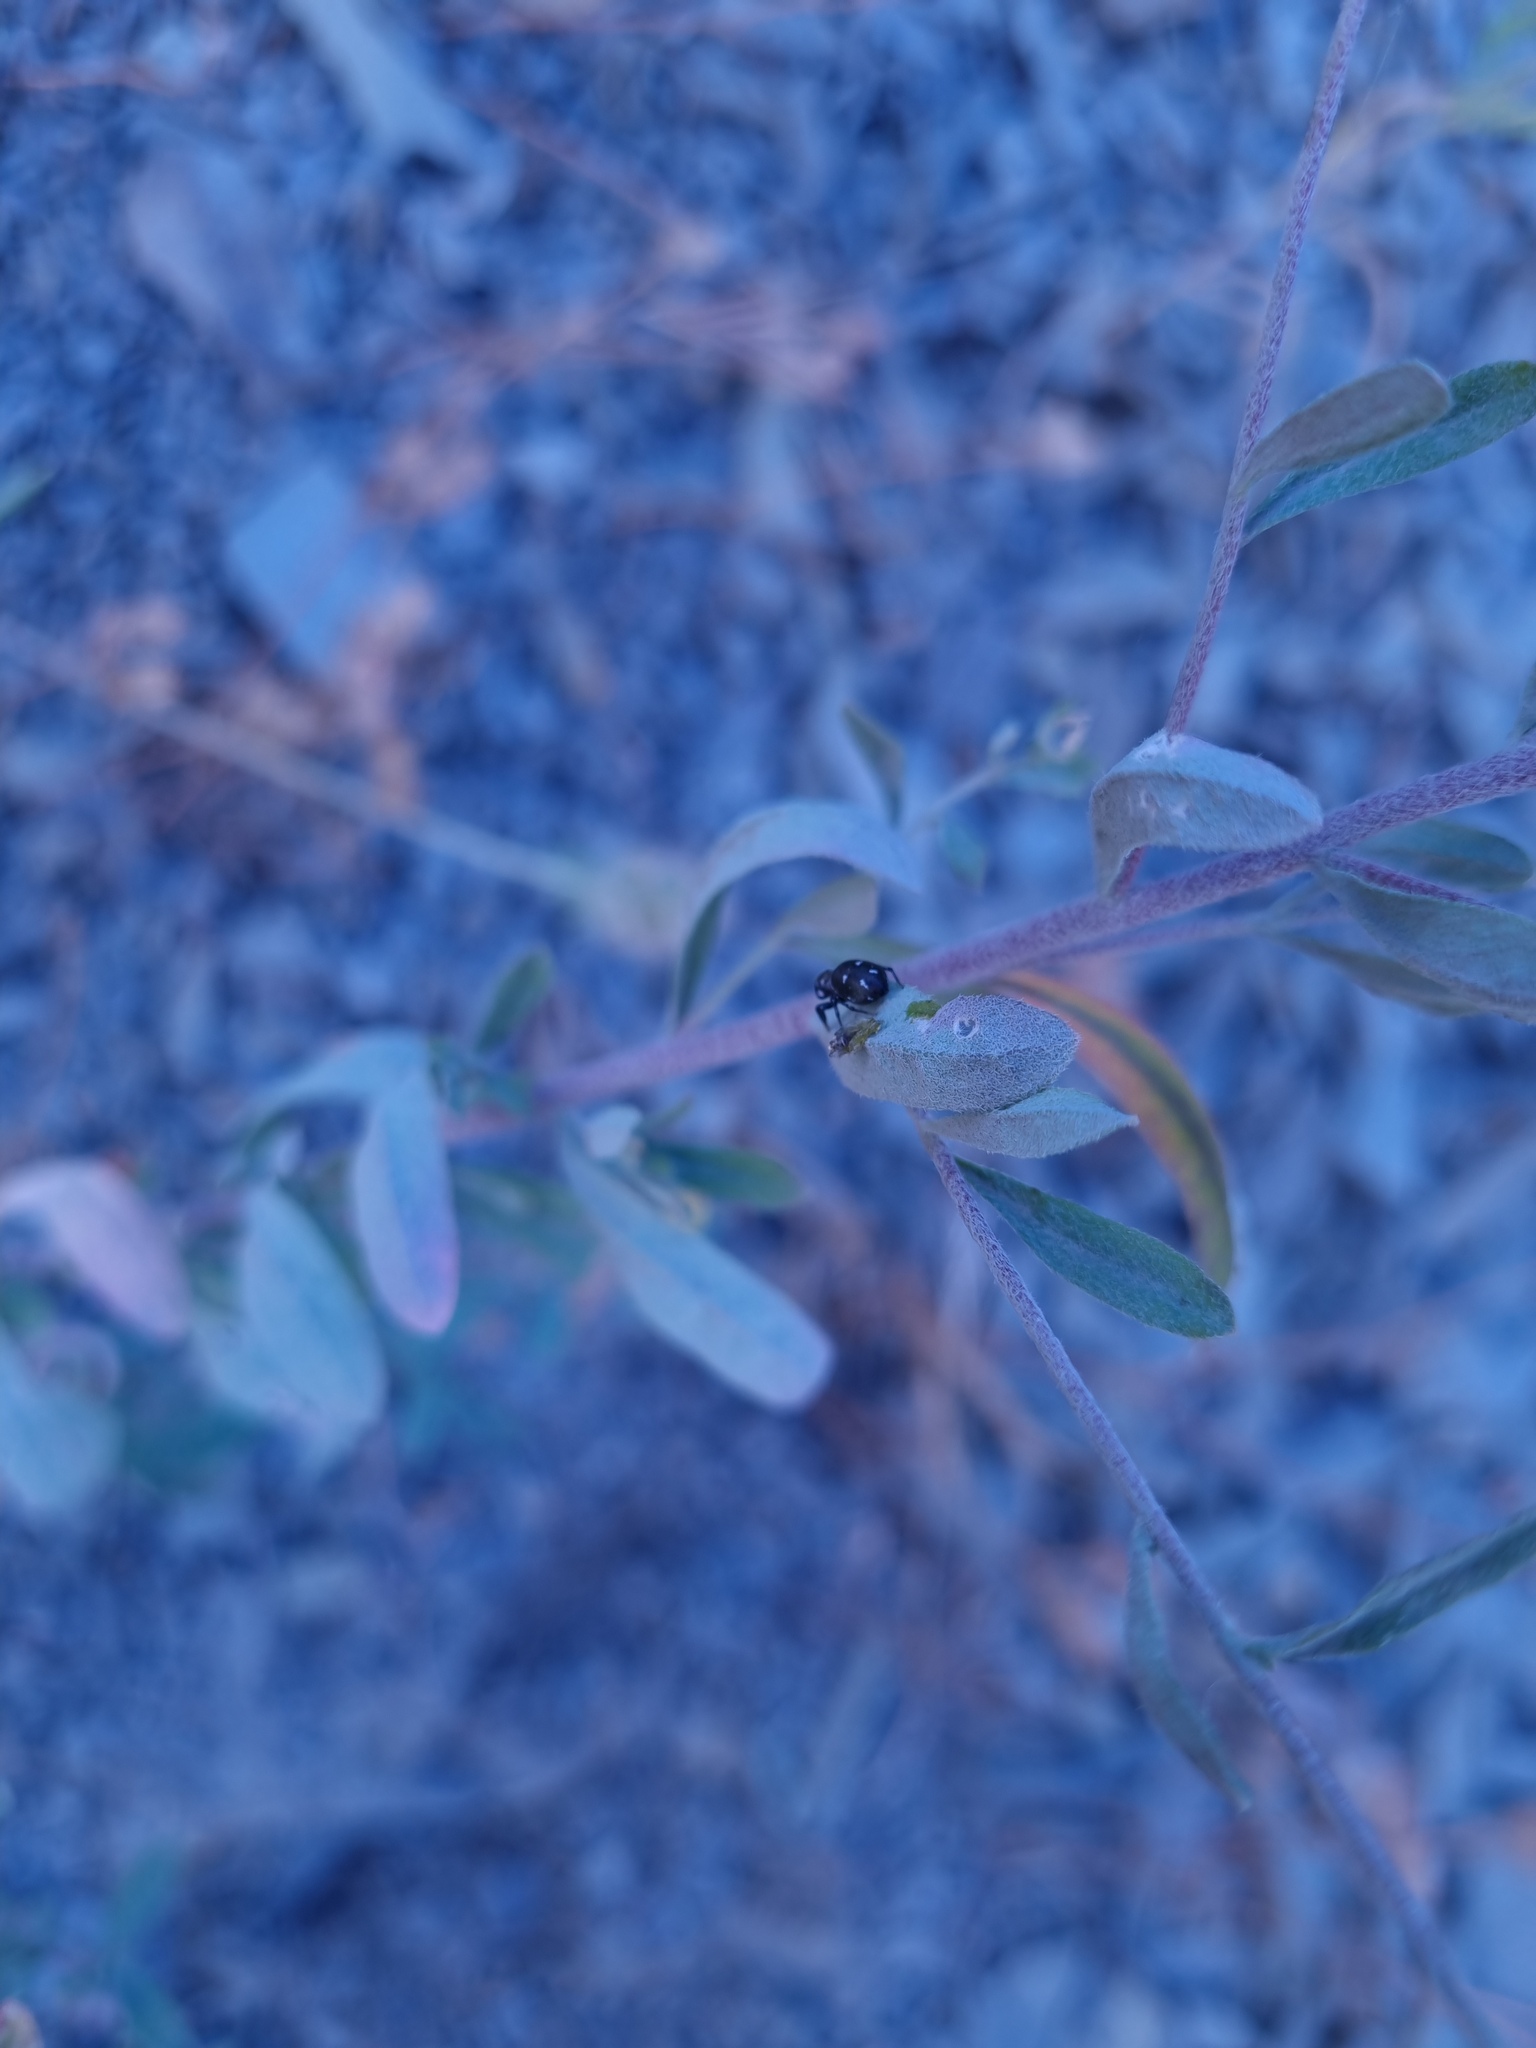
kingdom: Plantae
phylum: Tracheophyta
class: Magnoliopsida
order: Brassicales
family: Brassicaceae
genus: Odontarrhena
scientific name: Odontarrhena muralis
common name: Rock alyssum
